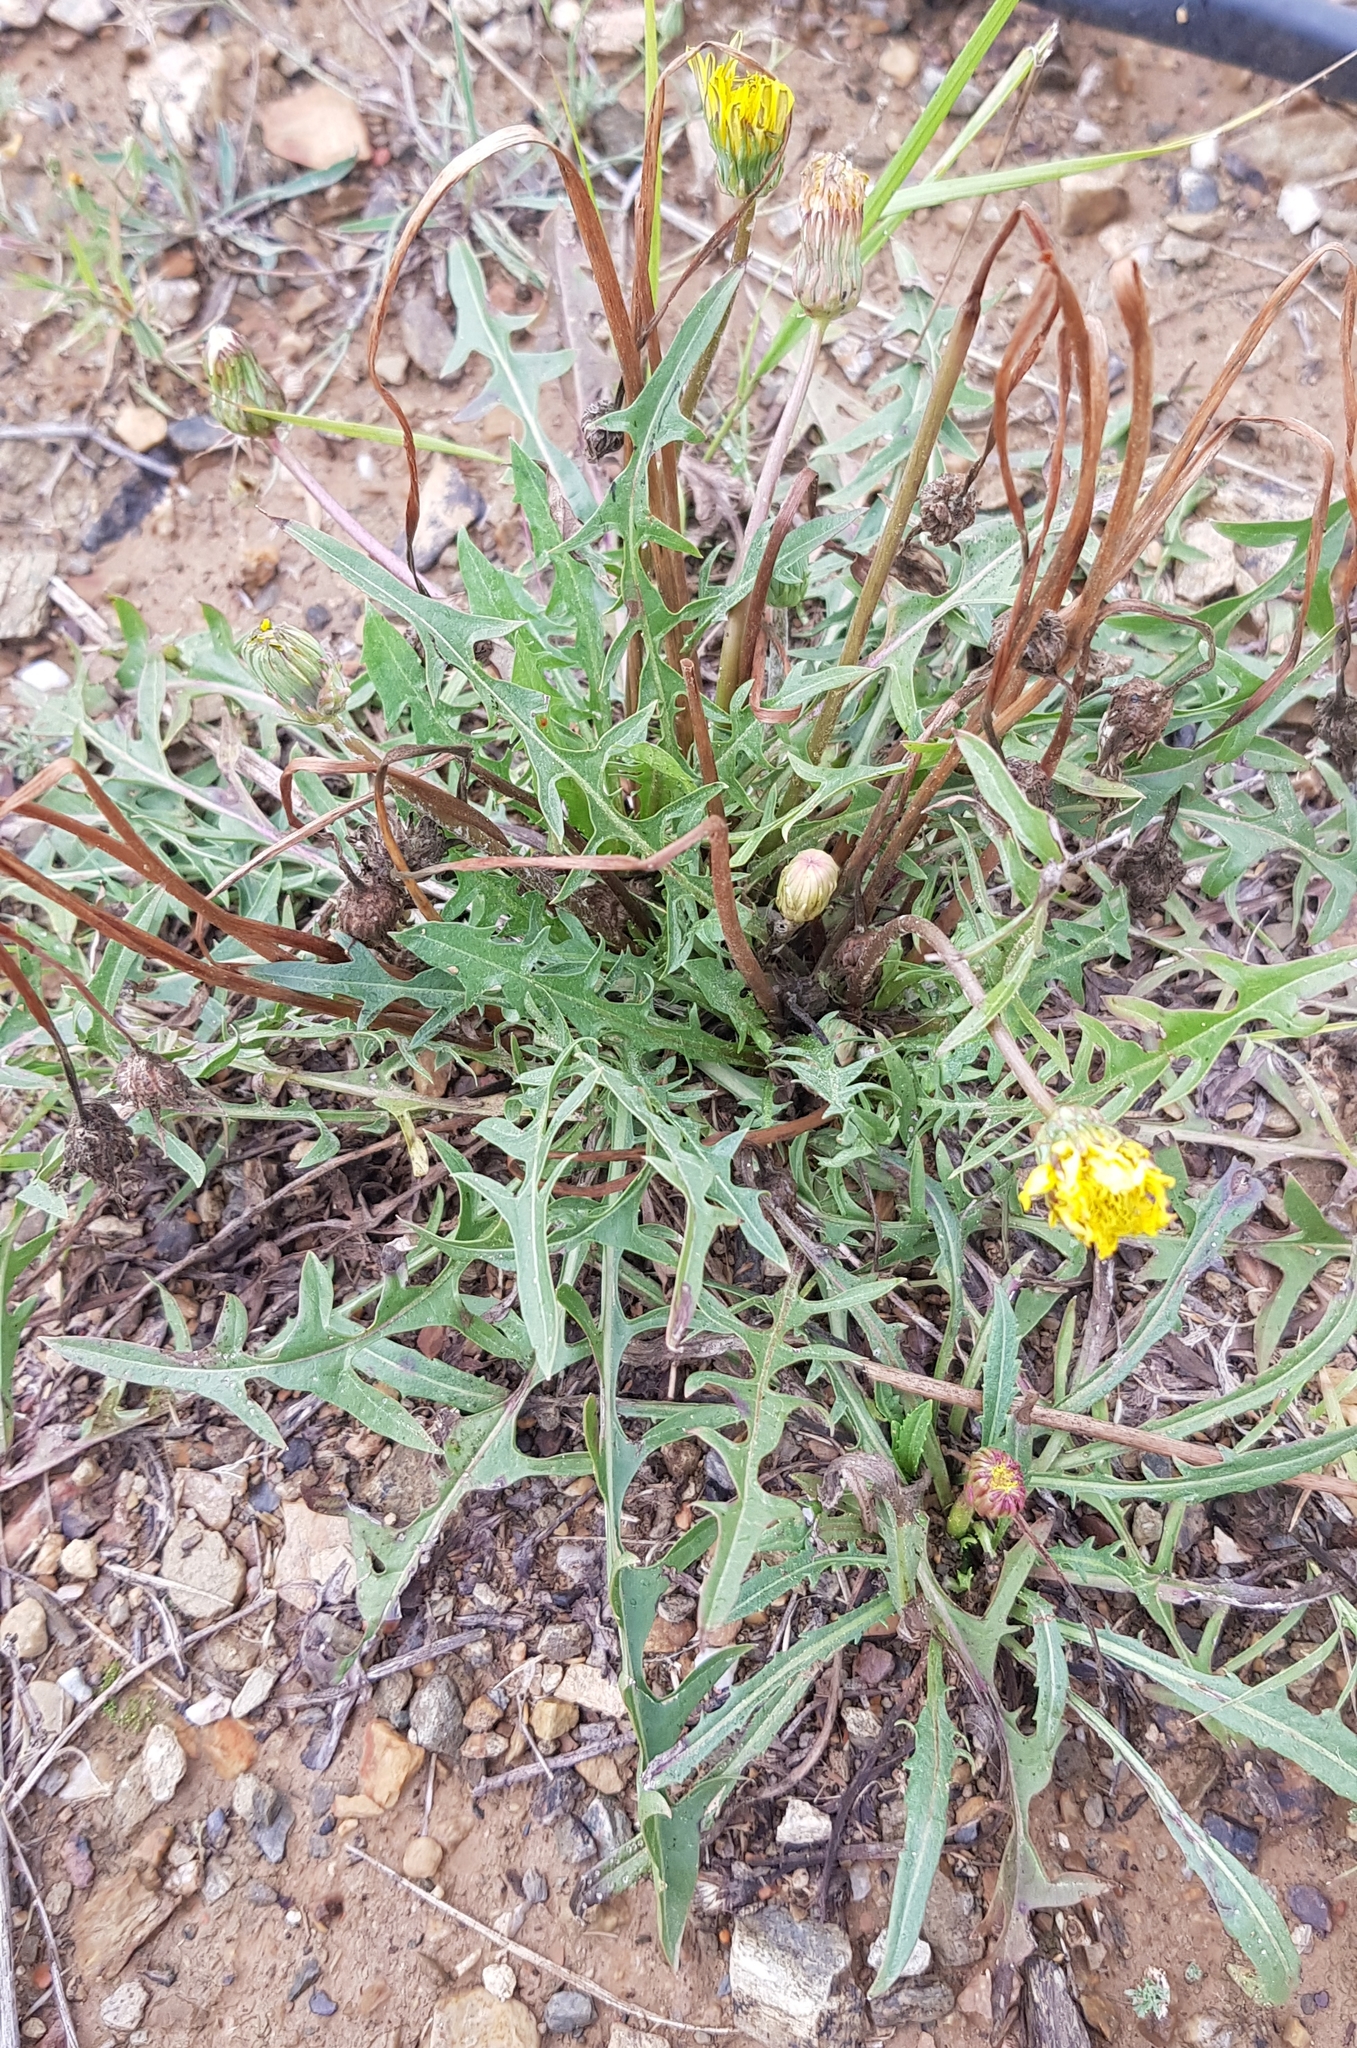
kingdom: Plantae
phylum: Tracheophyta
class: Magnoliopsida
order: Asterales
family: Asteraceae
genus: Taraxacum
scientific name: Taraxacum officinale
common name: Common dandelion
